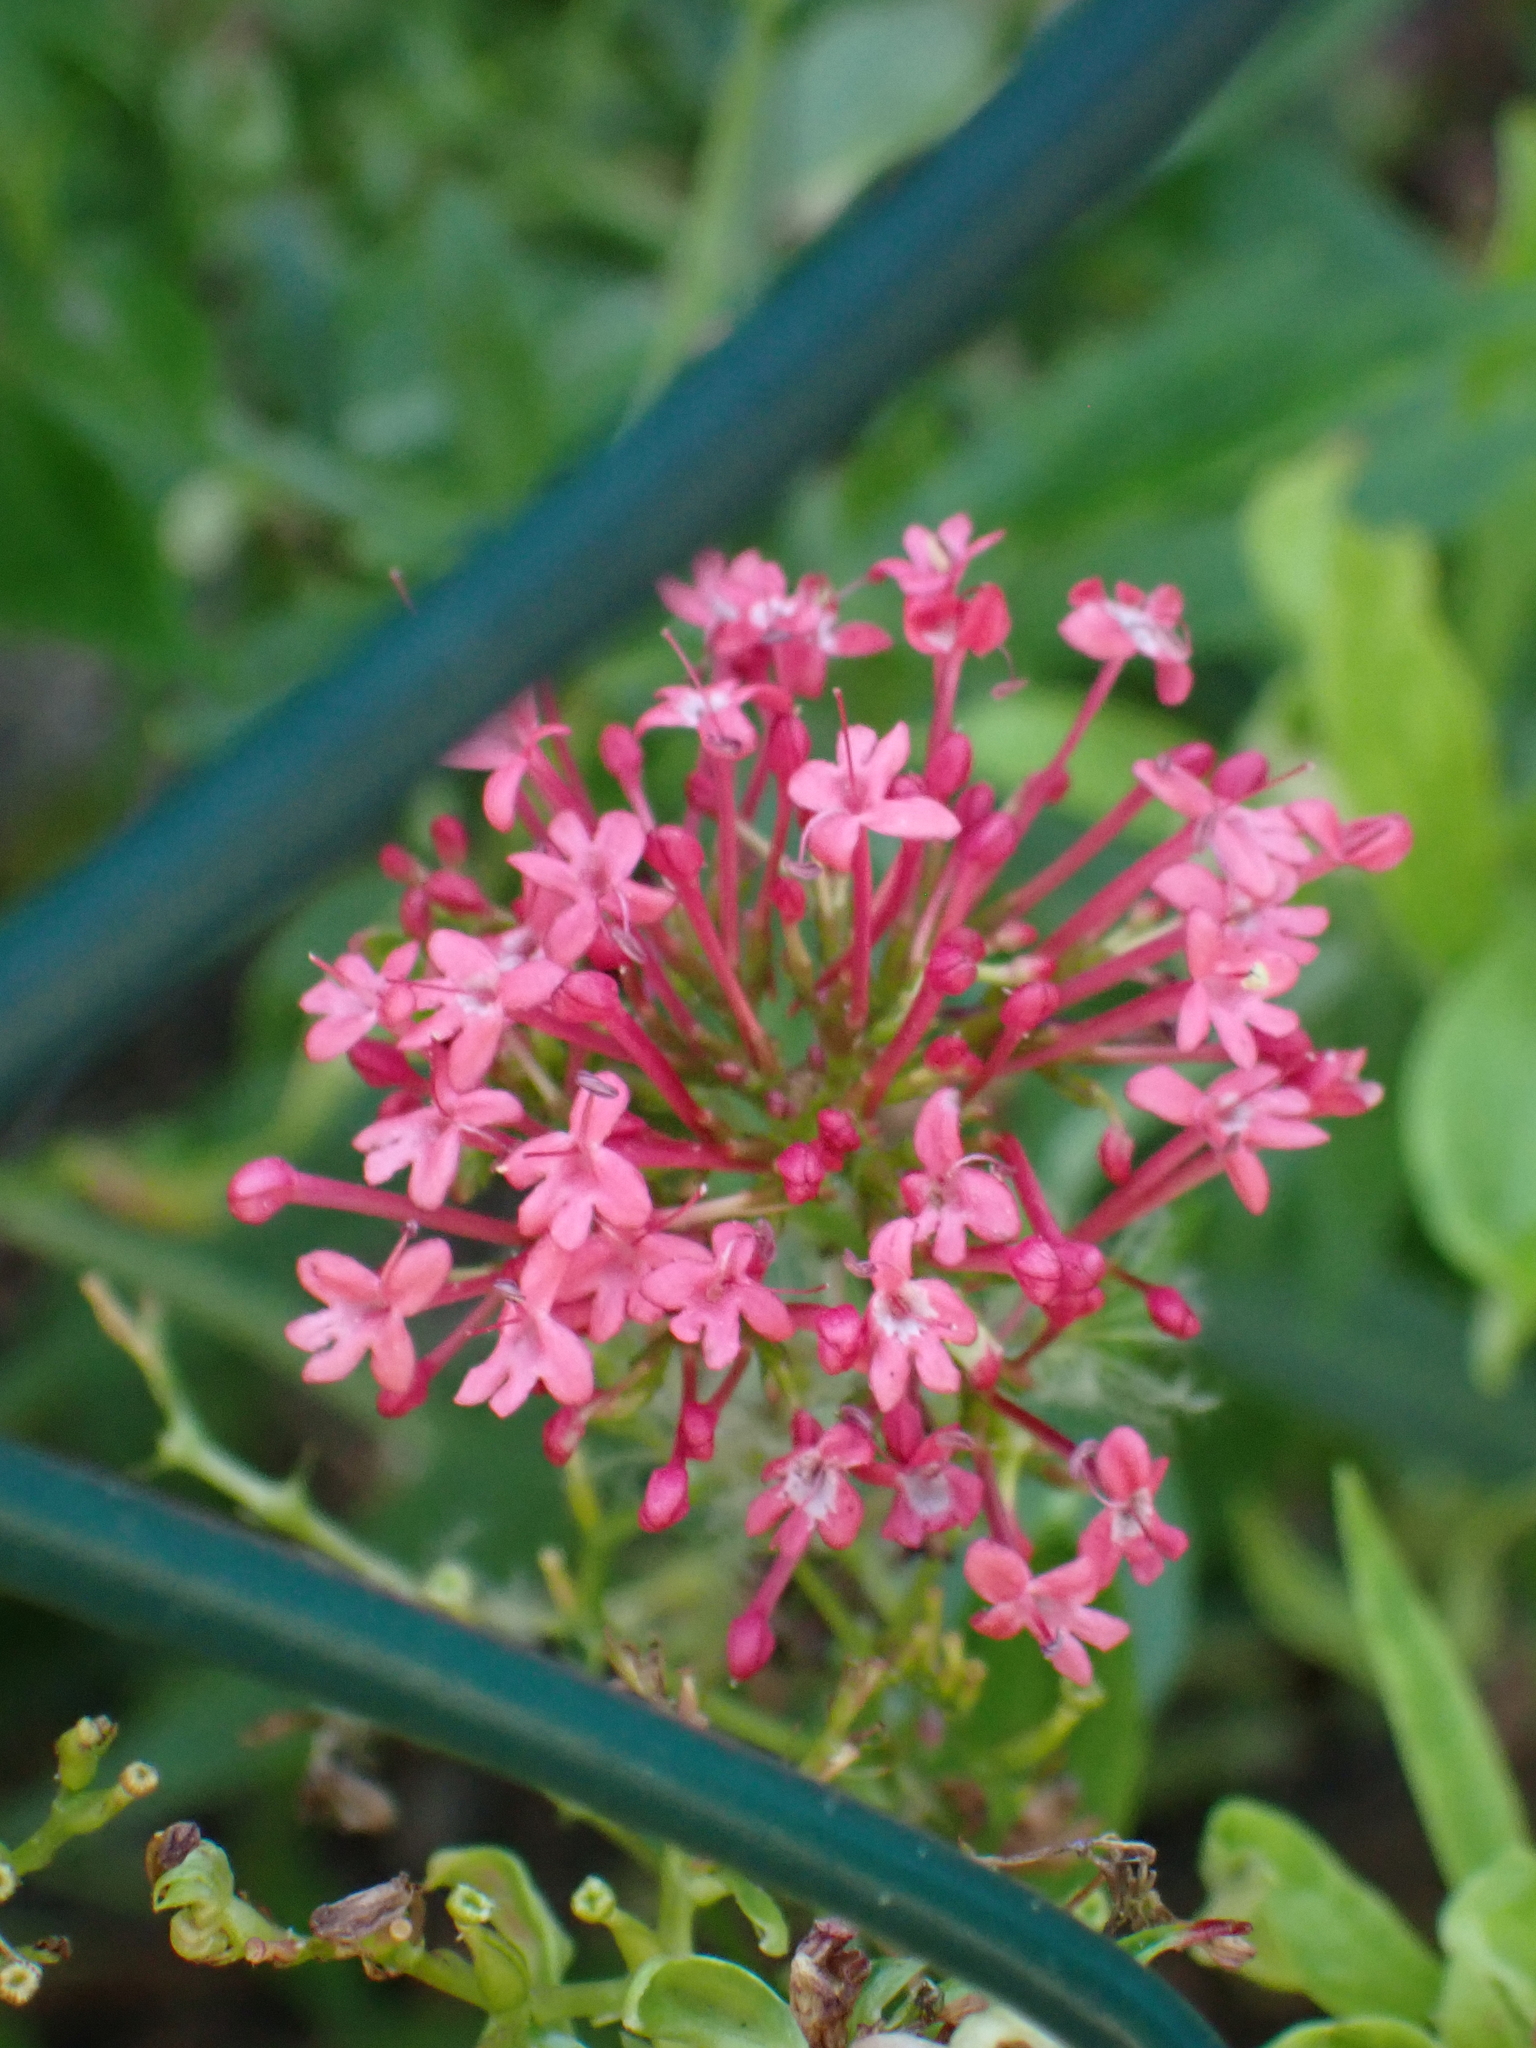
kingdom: Plantae
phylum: Tracheophyta
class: Magnoliopsida
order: Dipsacales
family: Caprifoliaceae
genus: Centranthus
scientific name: Centranthus ruber
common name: Red valerian
